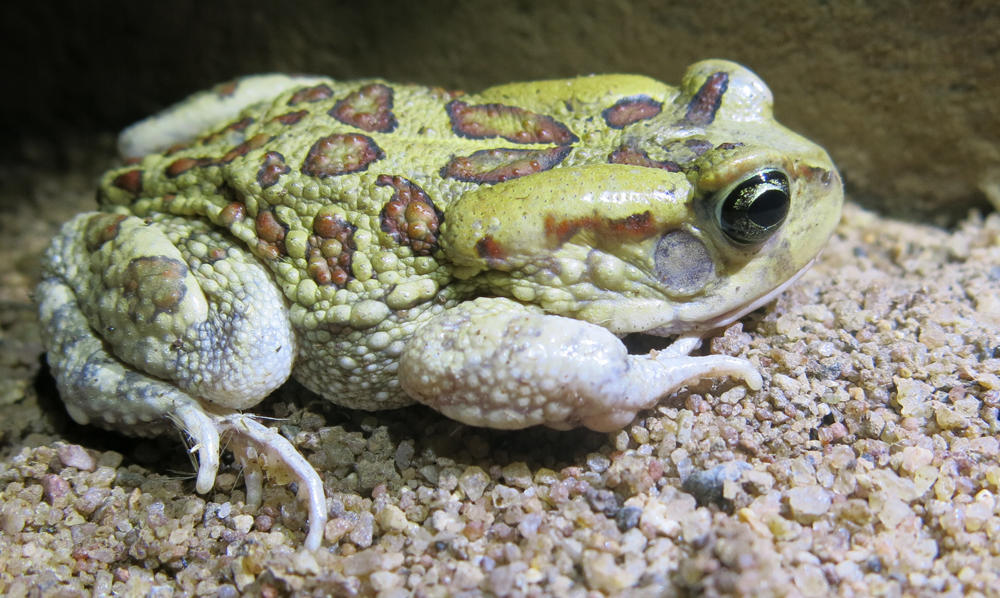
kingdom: Animalia
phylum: Chordata
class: Amphibia
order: Anura
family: Bufonidae
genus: Sclerophrys
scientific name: Sclerophrys garmani
